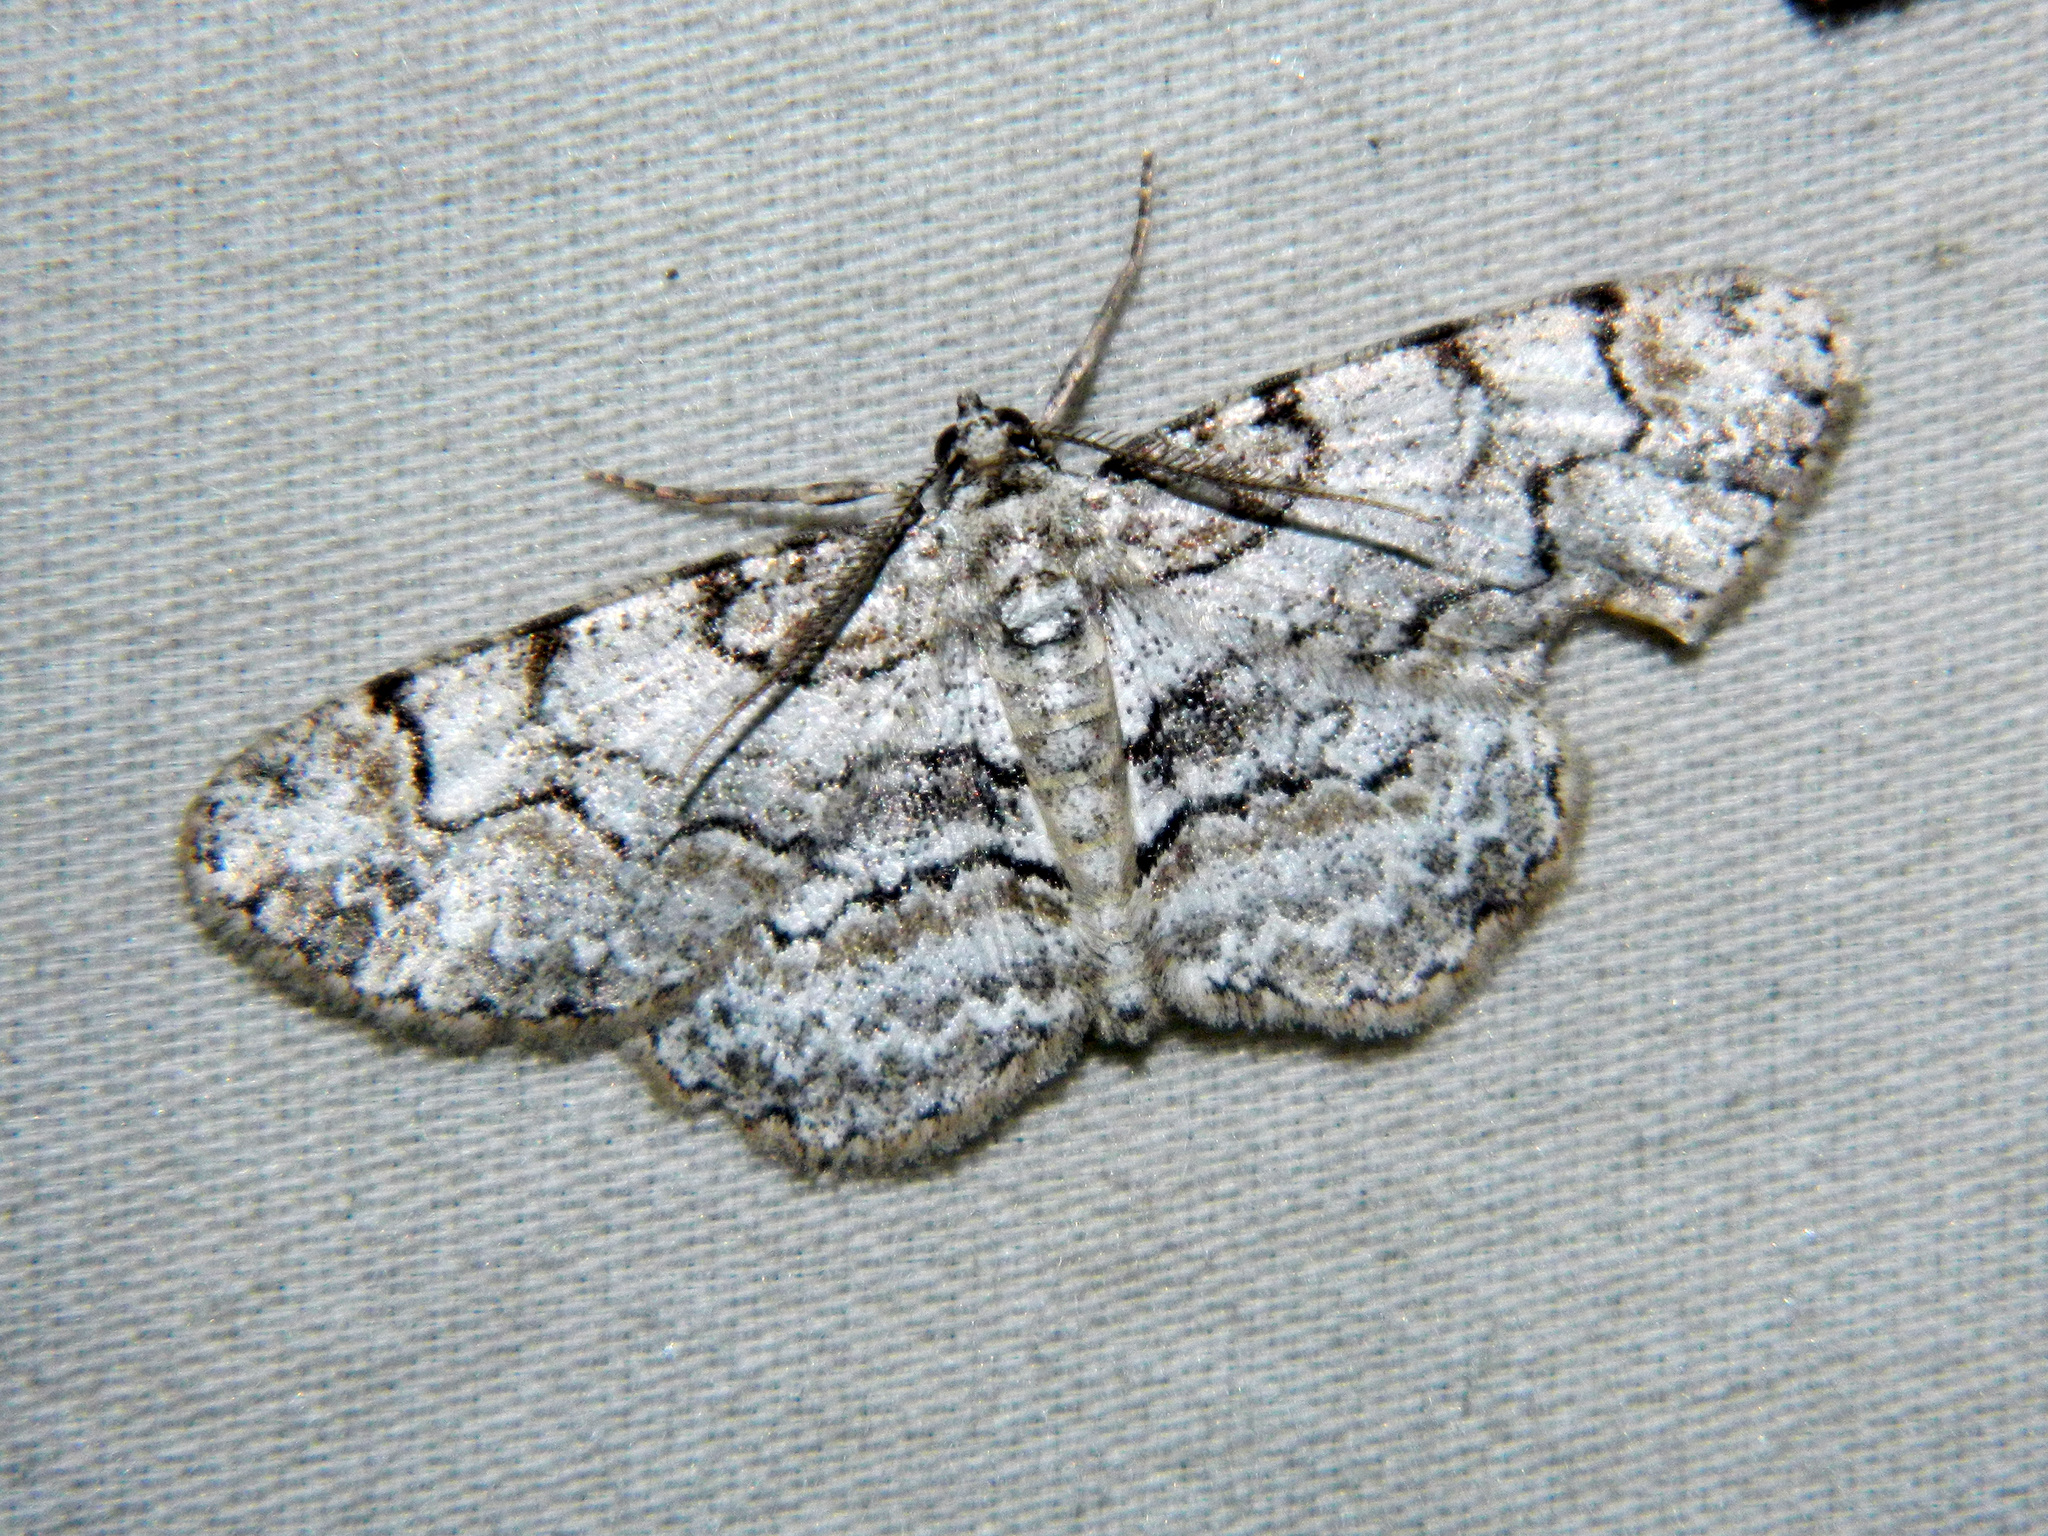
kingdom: Animalia
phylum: Arthropoda
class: Insecta
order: Lepidoptera
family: Geometridae
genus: Iridopsis
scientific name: Iridopsis ephyraria
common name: Pale-winged gray
